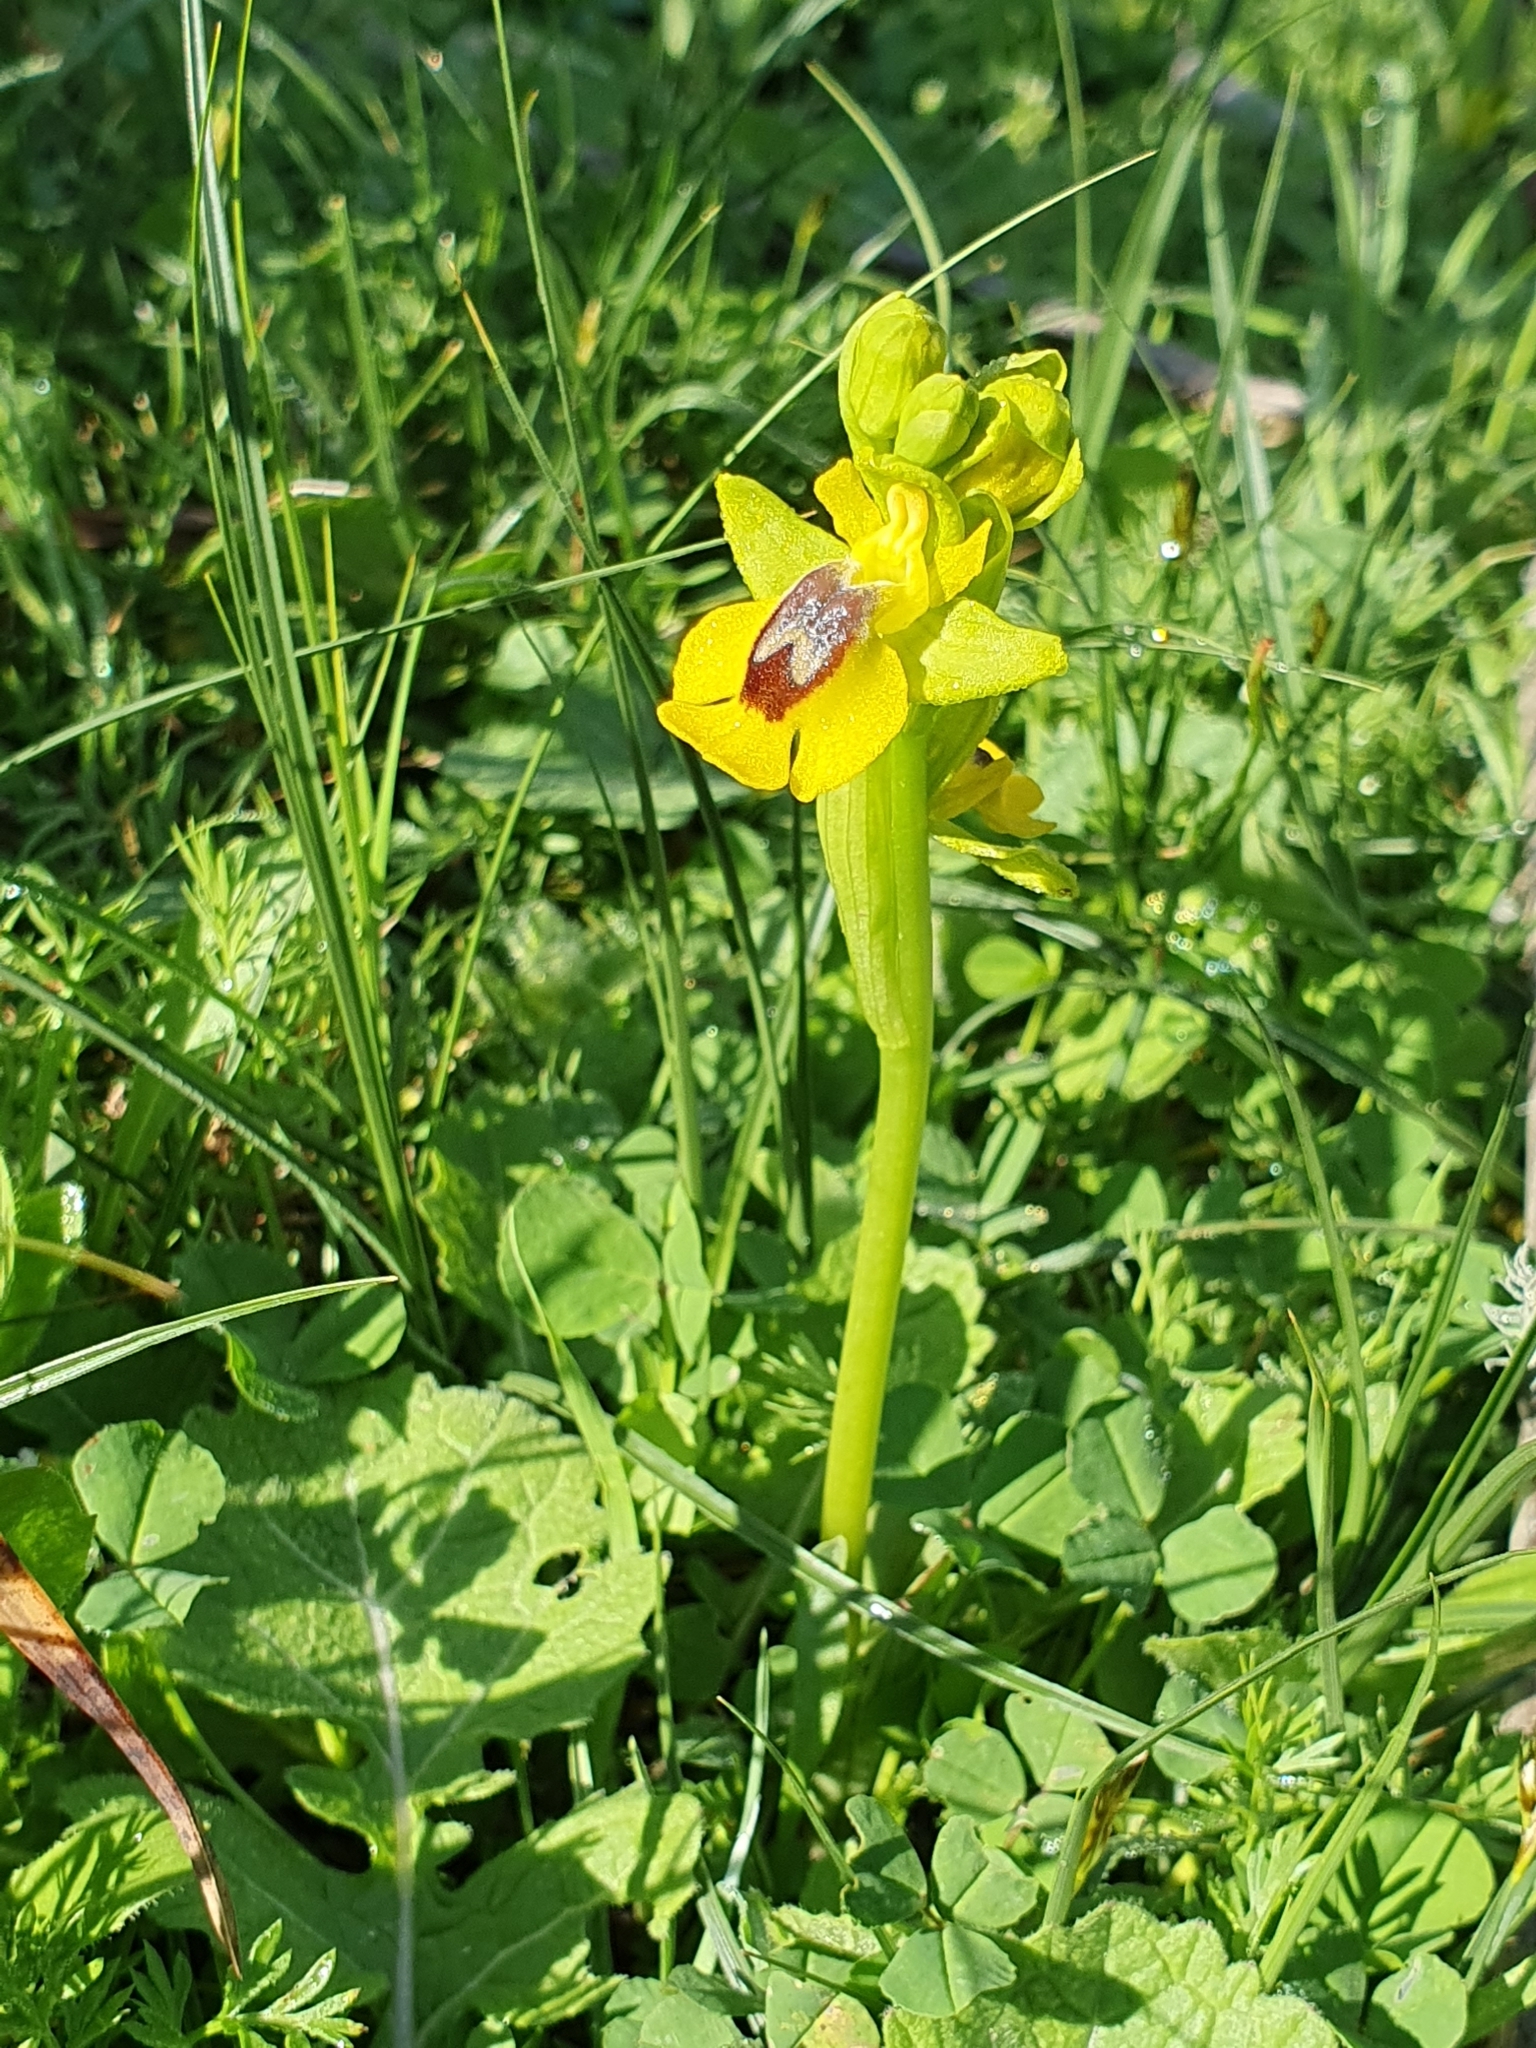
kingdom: Plantae
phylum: Tracheophyta
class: Liliopsida
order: Asparagales
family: Orchidaceae
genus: Ophrys
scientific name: Ophrys lutea
